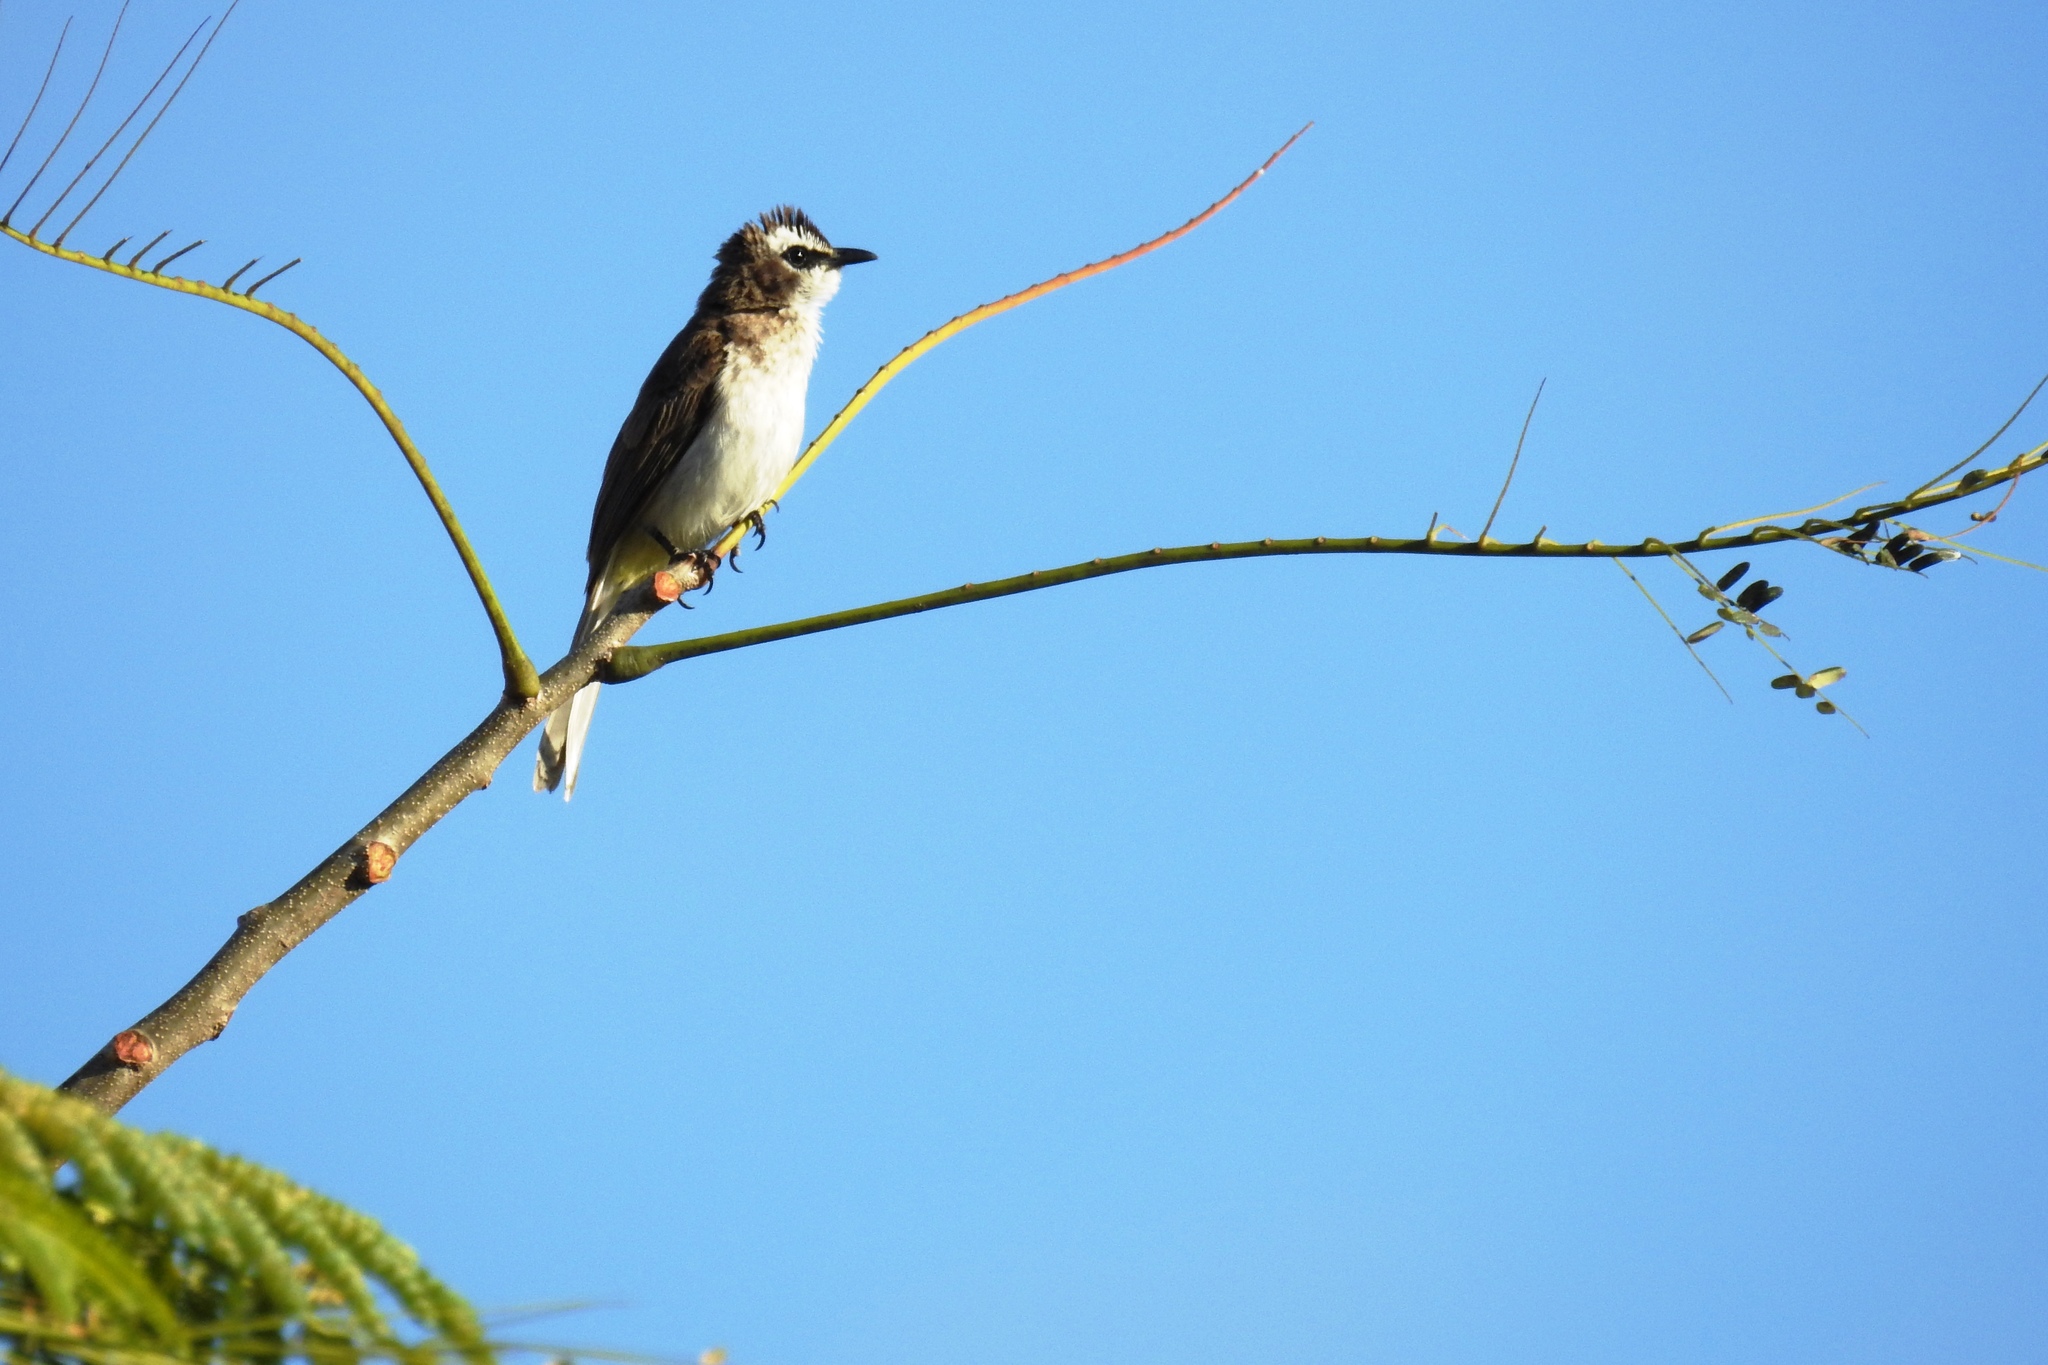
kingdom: Animalia
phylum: Chordata
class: Aves
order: Passeriformes
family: Pycnonotidae
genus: Pycnonotus
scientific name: Pycnonotus goiavier
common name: Yellow-vented bulbul
